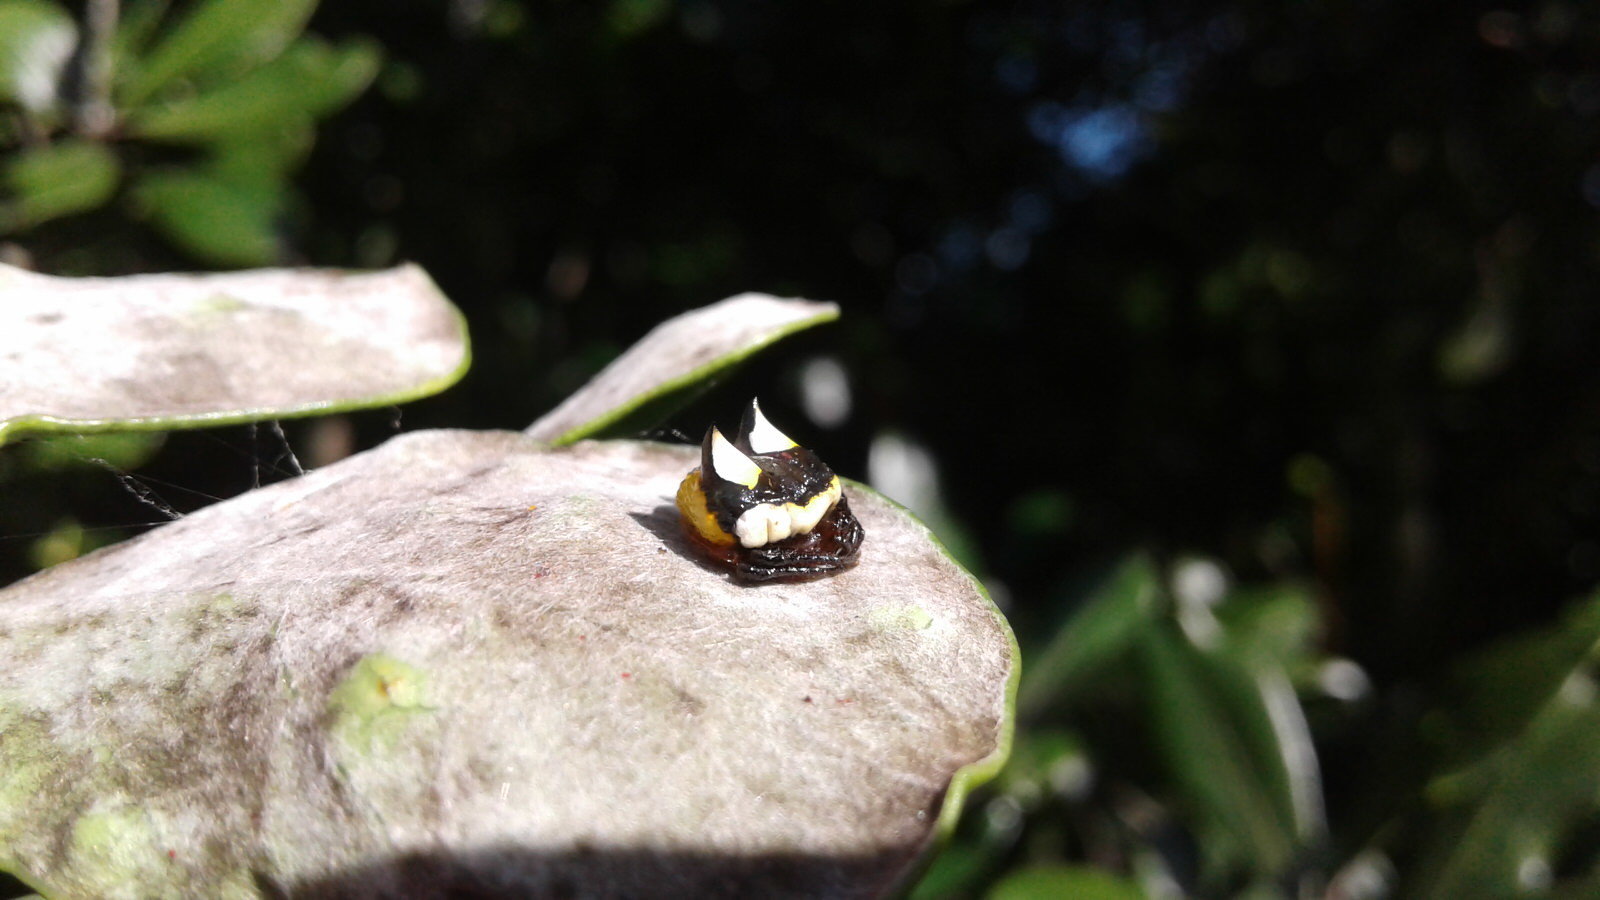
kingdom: Animalia
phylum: Arthropoda
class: Arachnida
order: Araneae
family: Araneidae
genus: Poecilopachys
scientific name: Poecilopachys australasia
